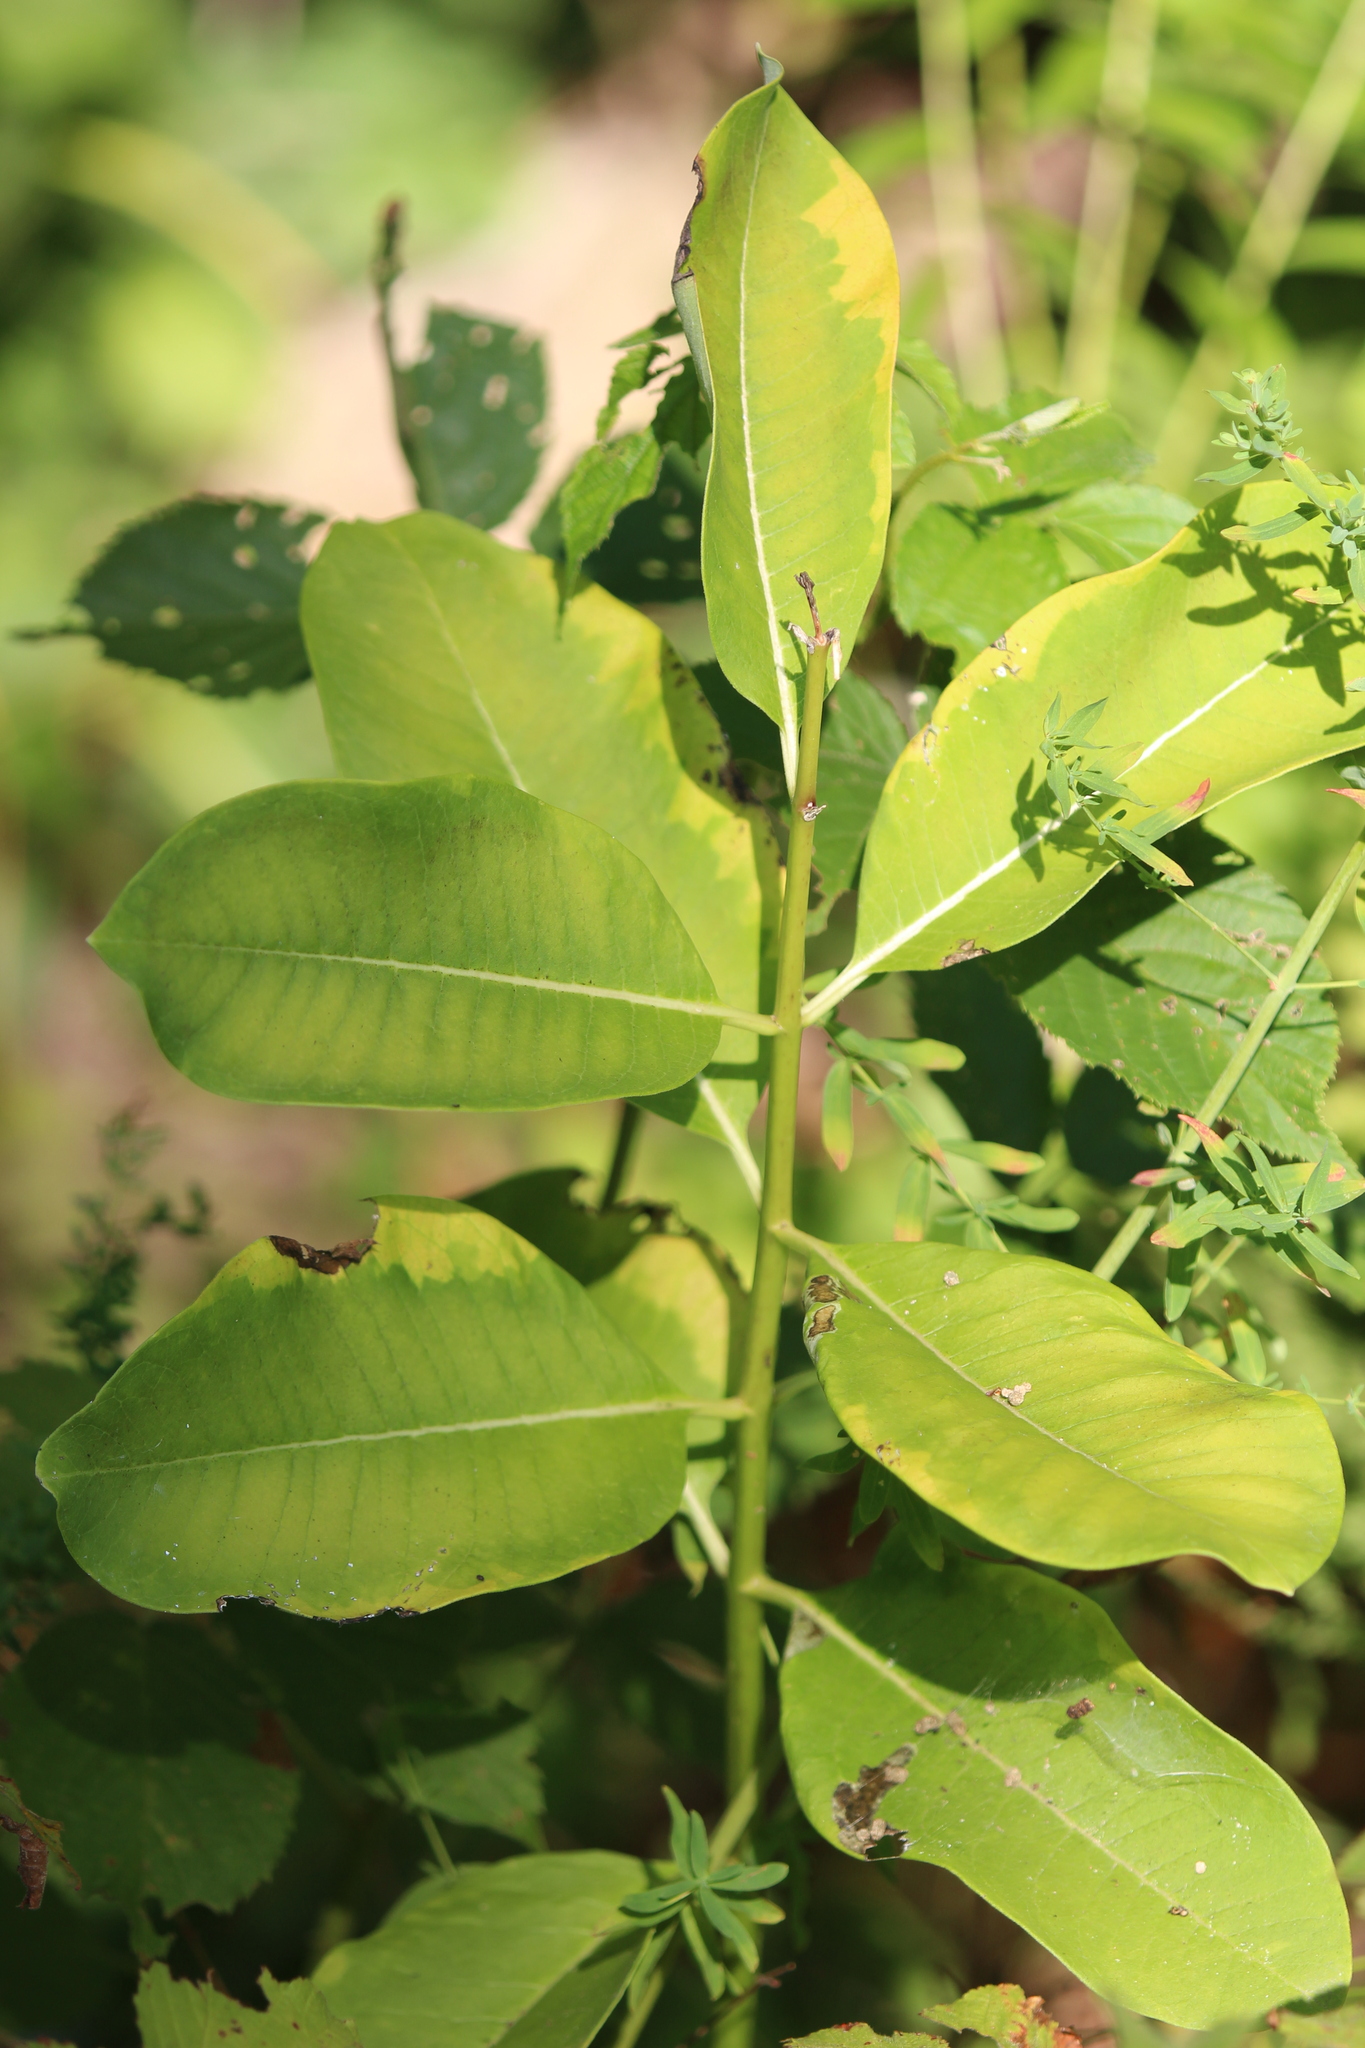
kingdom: Plantae
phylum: Tracheophyta
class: Magnoliopsida
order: Gentianales
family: Apocynaceae
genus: Asclepias
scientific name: Asclepias syriaca
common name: Common milkweed
